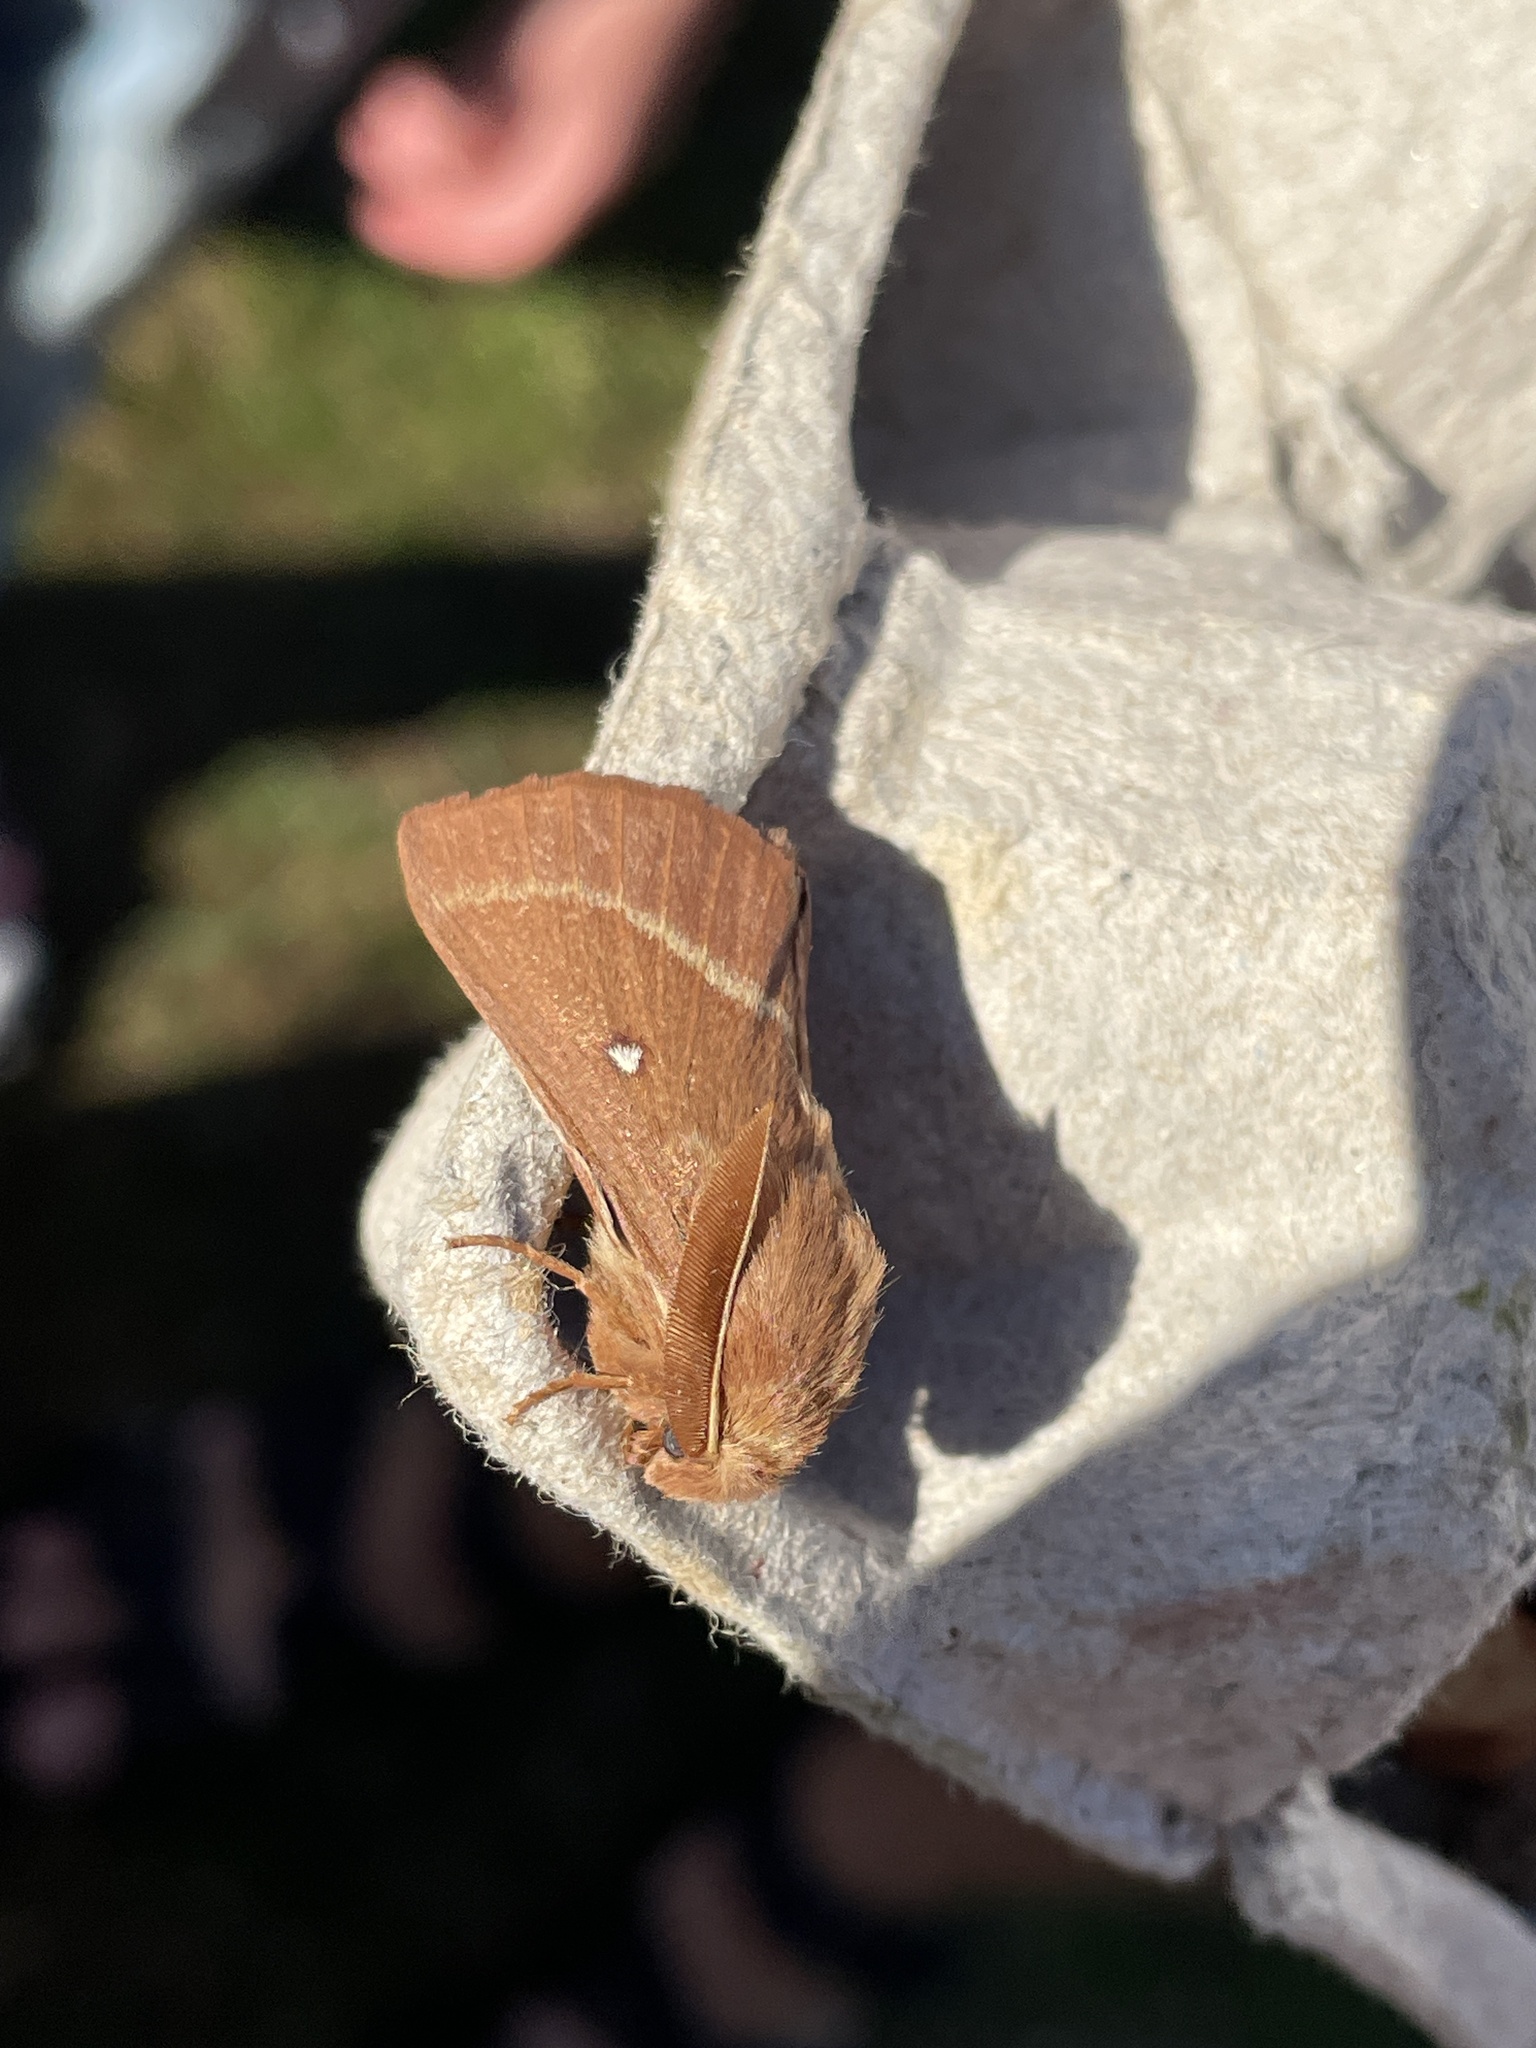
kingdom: Animalia
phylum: Arthropoda
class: Insecta
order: Lepidoptera
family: Lasiocampidae
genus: Lasiocampa
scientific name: Lasiocampa trifolii
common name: Grass eggar
